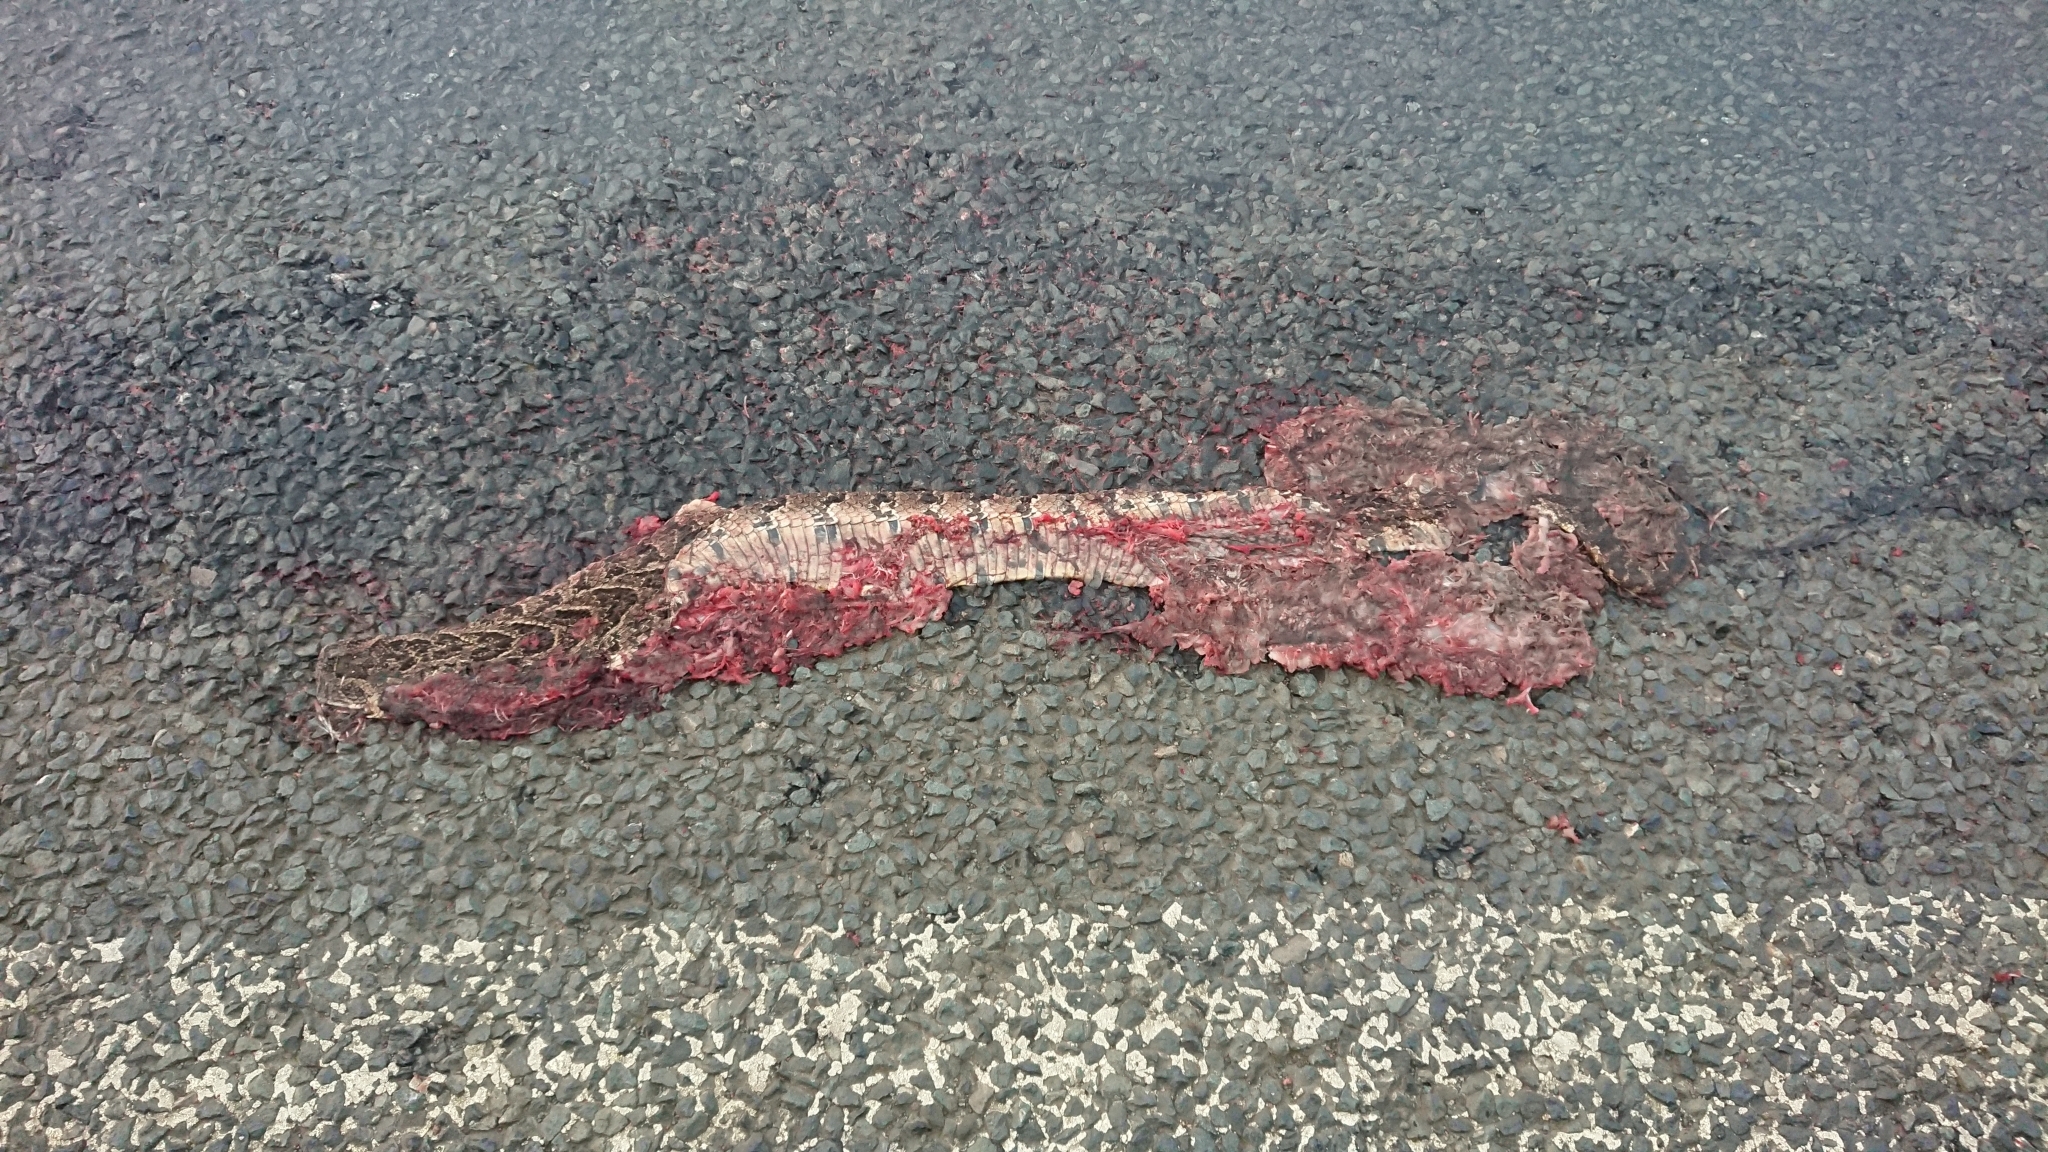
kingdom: Animalia
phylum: Chordata
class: Squamata
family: Viperidae
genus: Bitis
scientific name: Bitis arietans
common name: Puff adder
